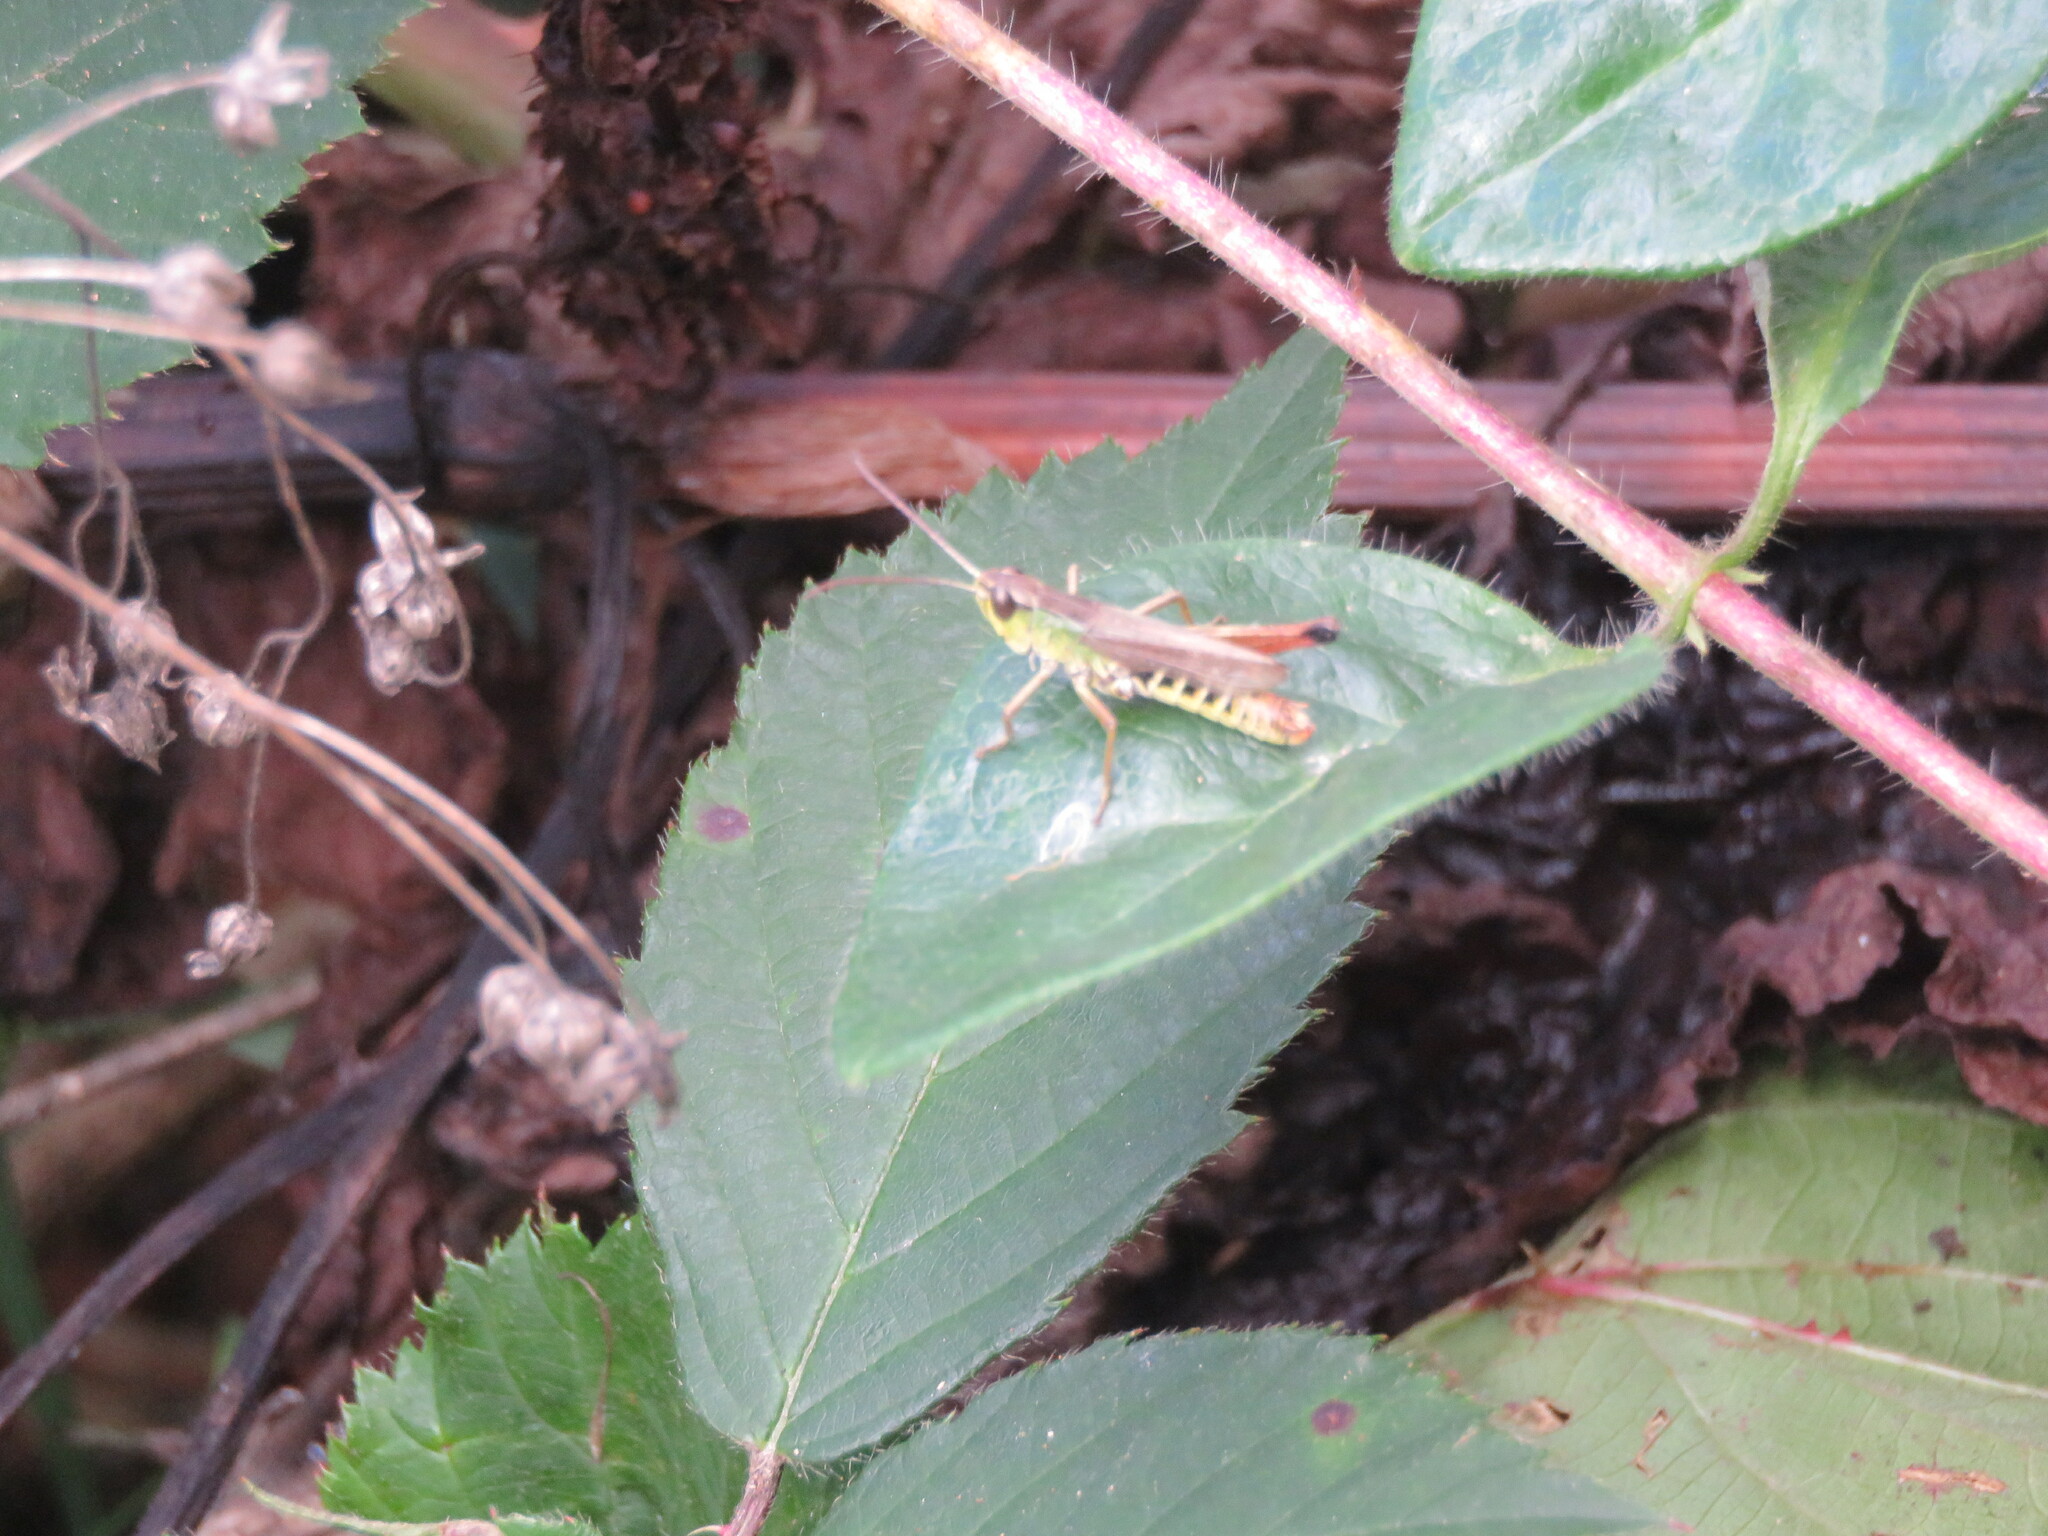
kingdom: Animalia
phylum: Arthropoda
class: Insecta
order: Orthoptera
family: Acrididae
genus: Pseudochorthippus
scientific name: Pseudochorthippus parallelus
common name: Meadow grasshopper
